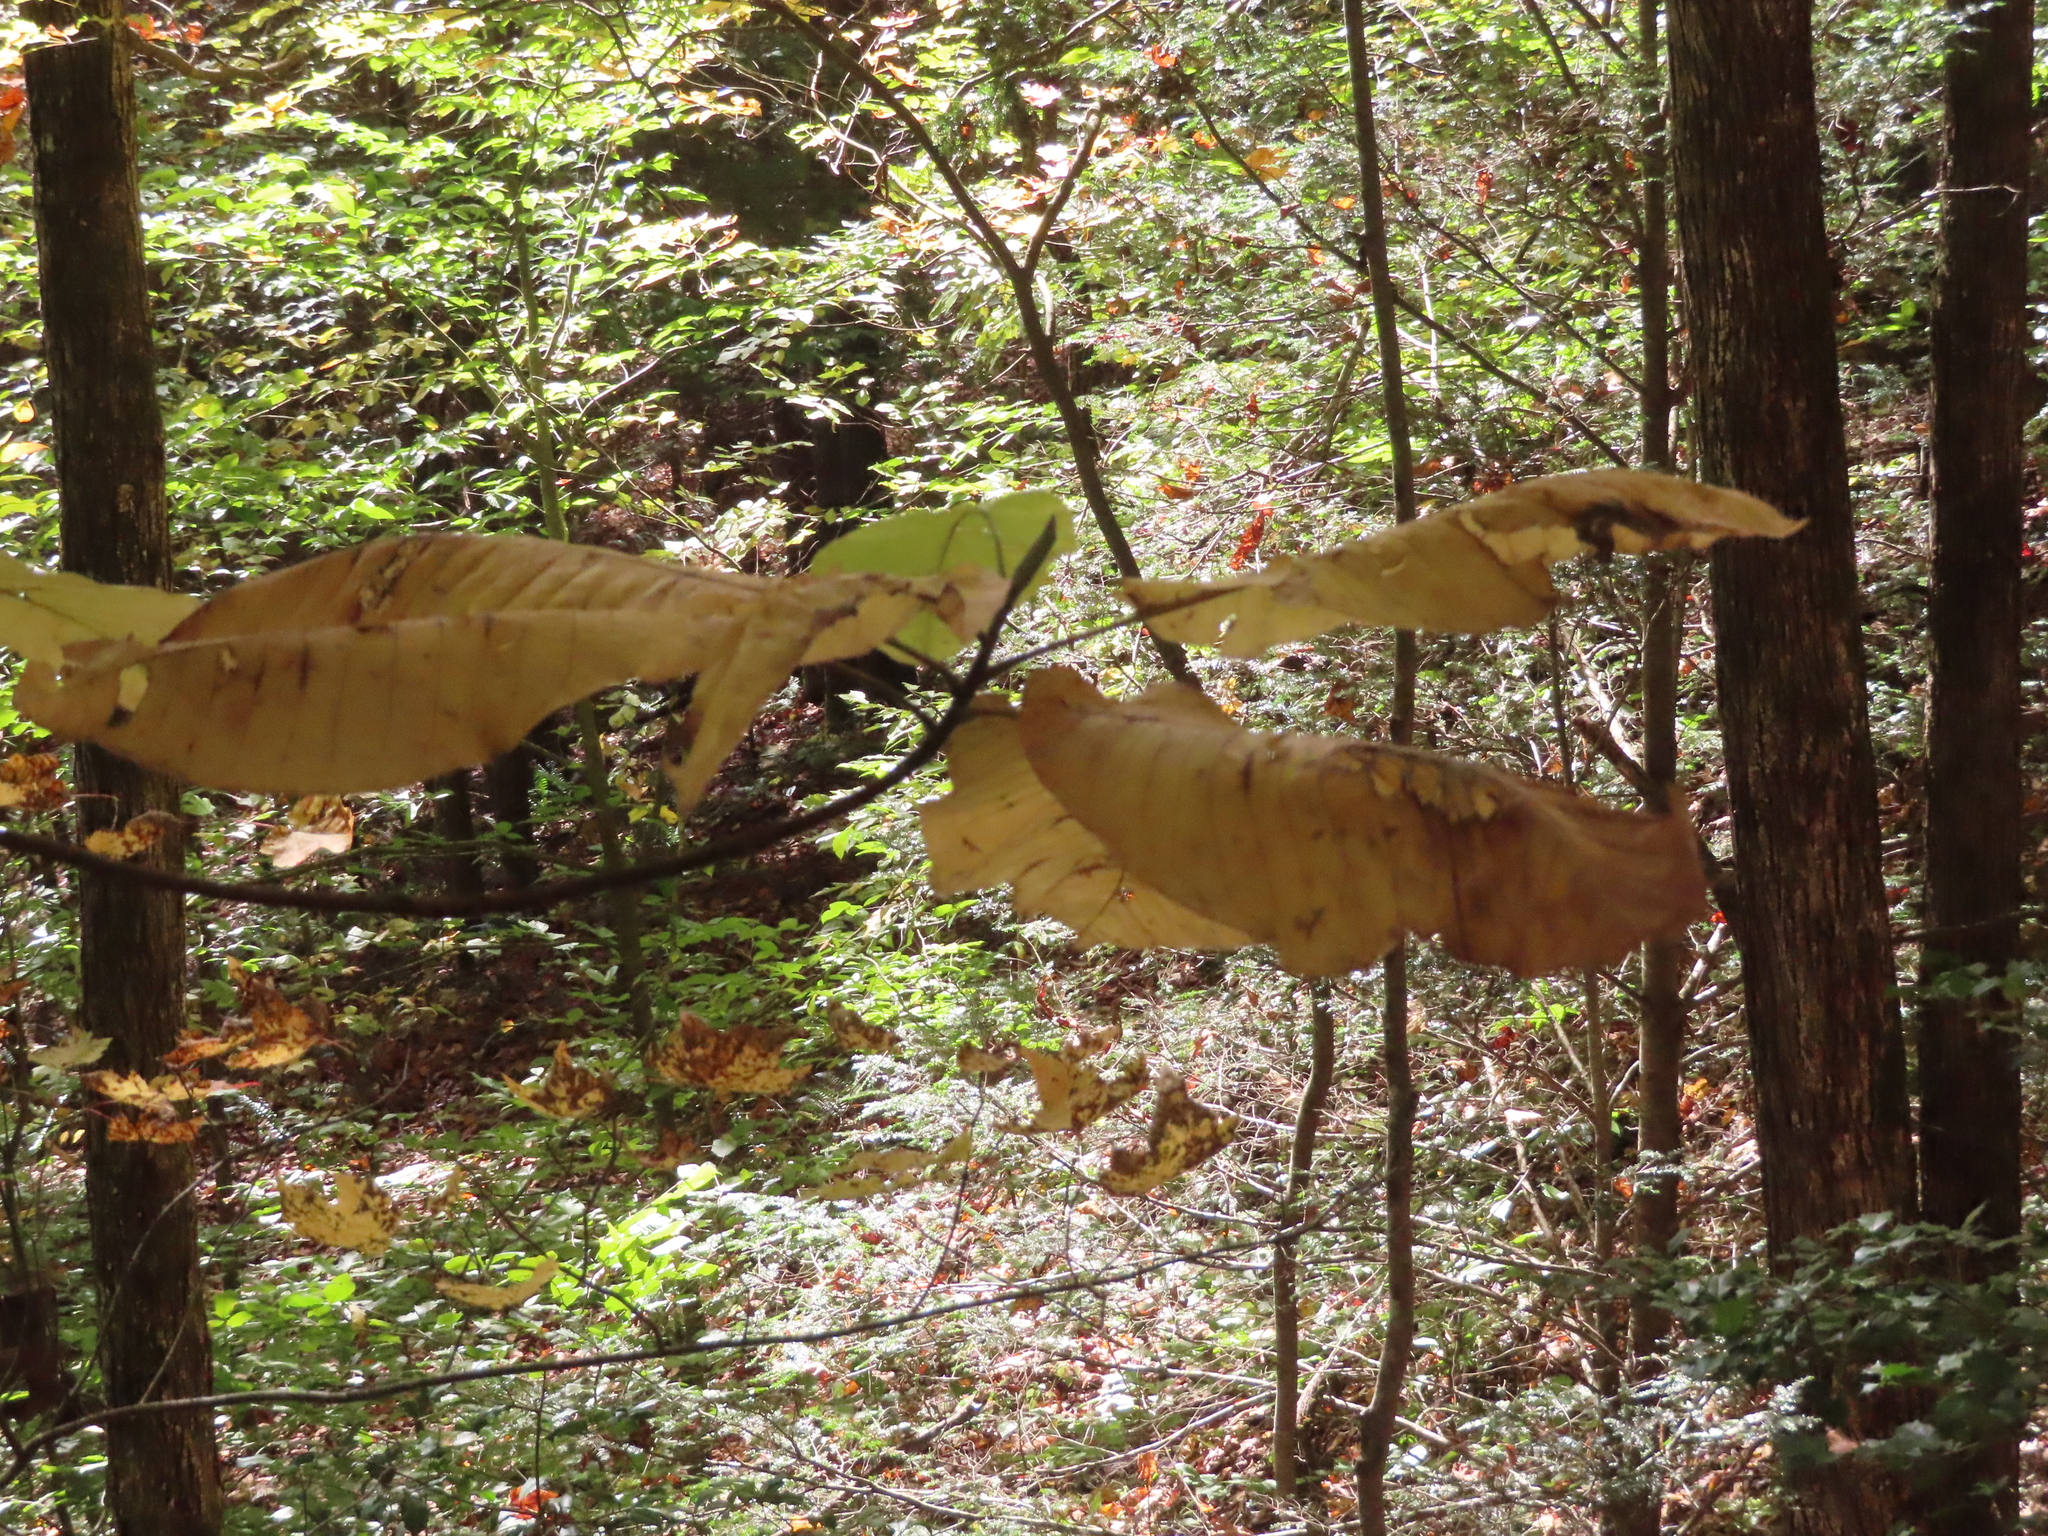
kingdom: Plantae
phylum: Tracheophyta
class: Magnoliopsida
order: Magnoliales
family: Magnoliaceae
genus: Magnolia
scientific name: Magnolia macrophylla
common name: Big-leaf magnolia
